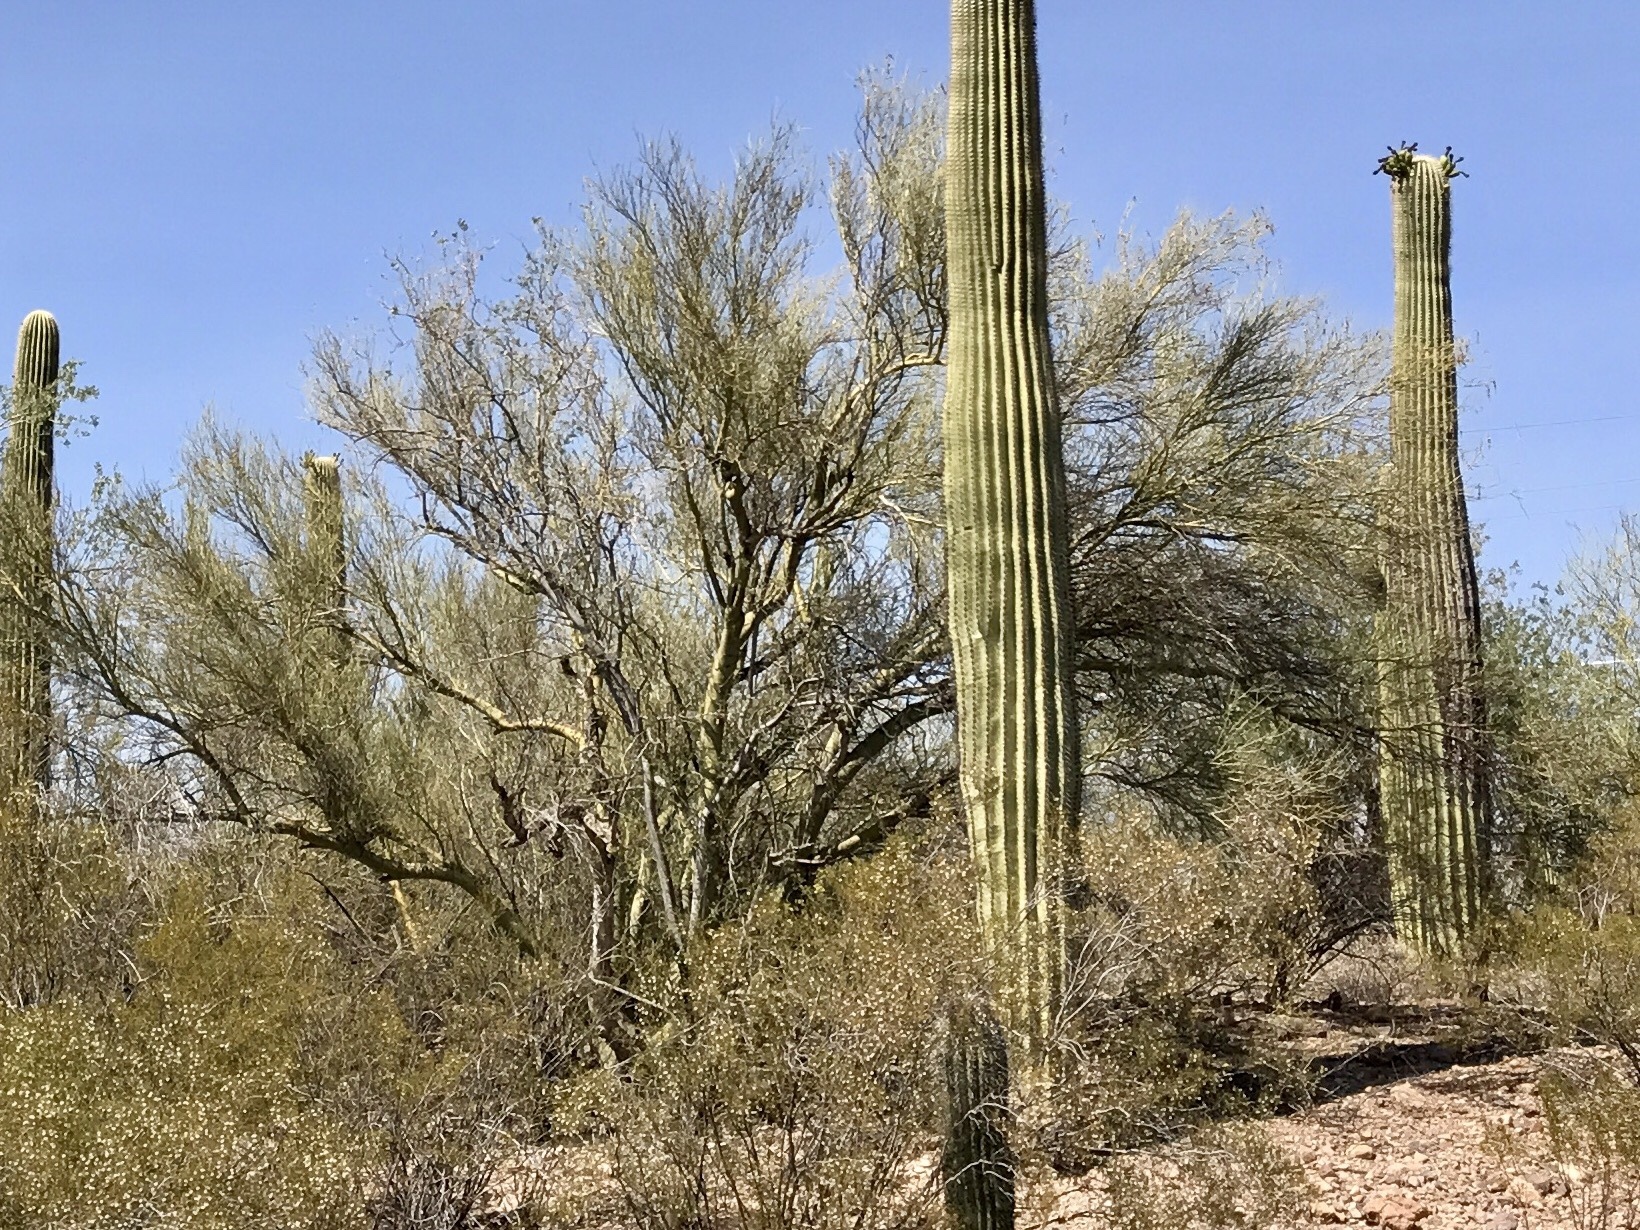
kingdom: Plantae
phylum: Tracheophyta
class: Magnoliopsida
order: Fabales
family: Fabaceae
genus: Parkinsonia
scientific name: Parkinsonia florida
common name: Blue paloverde
